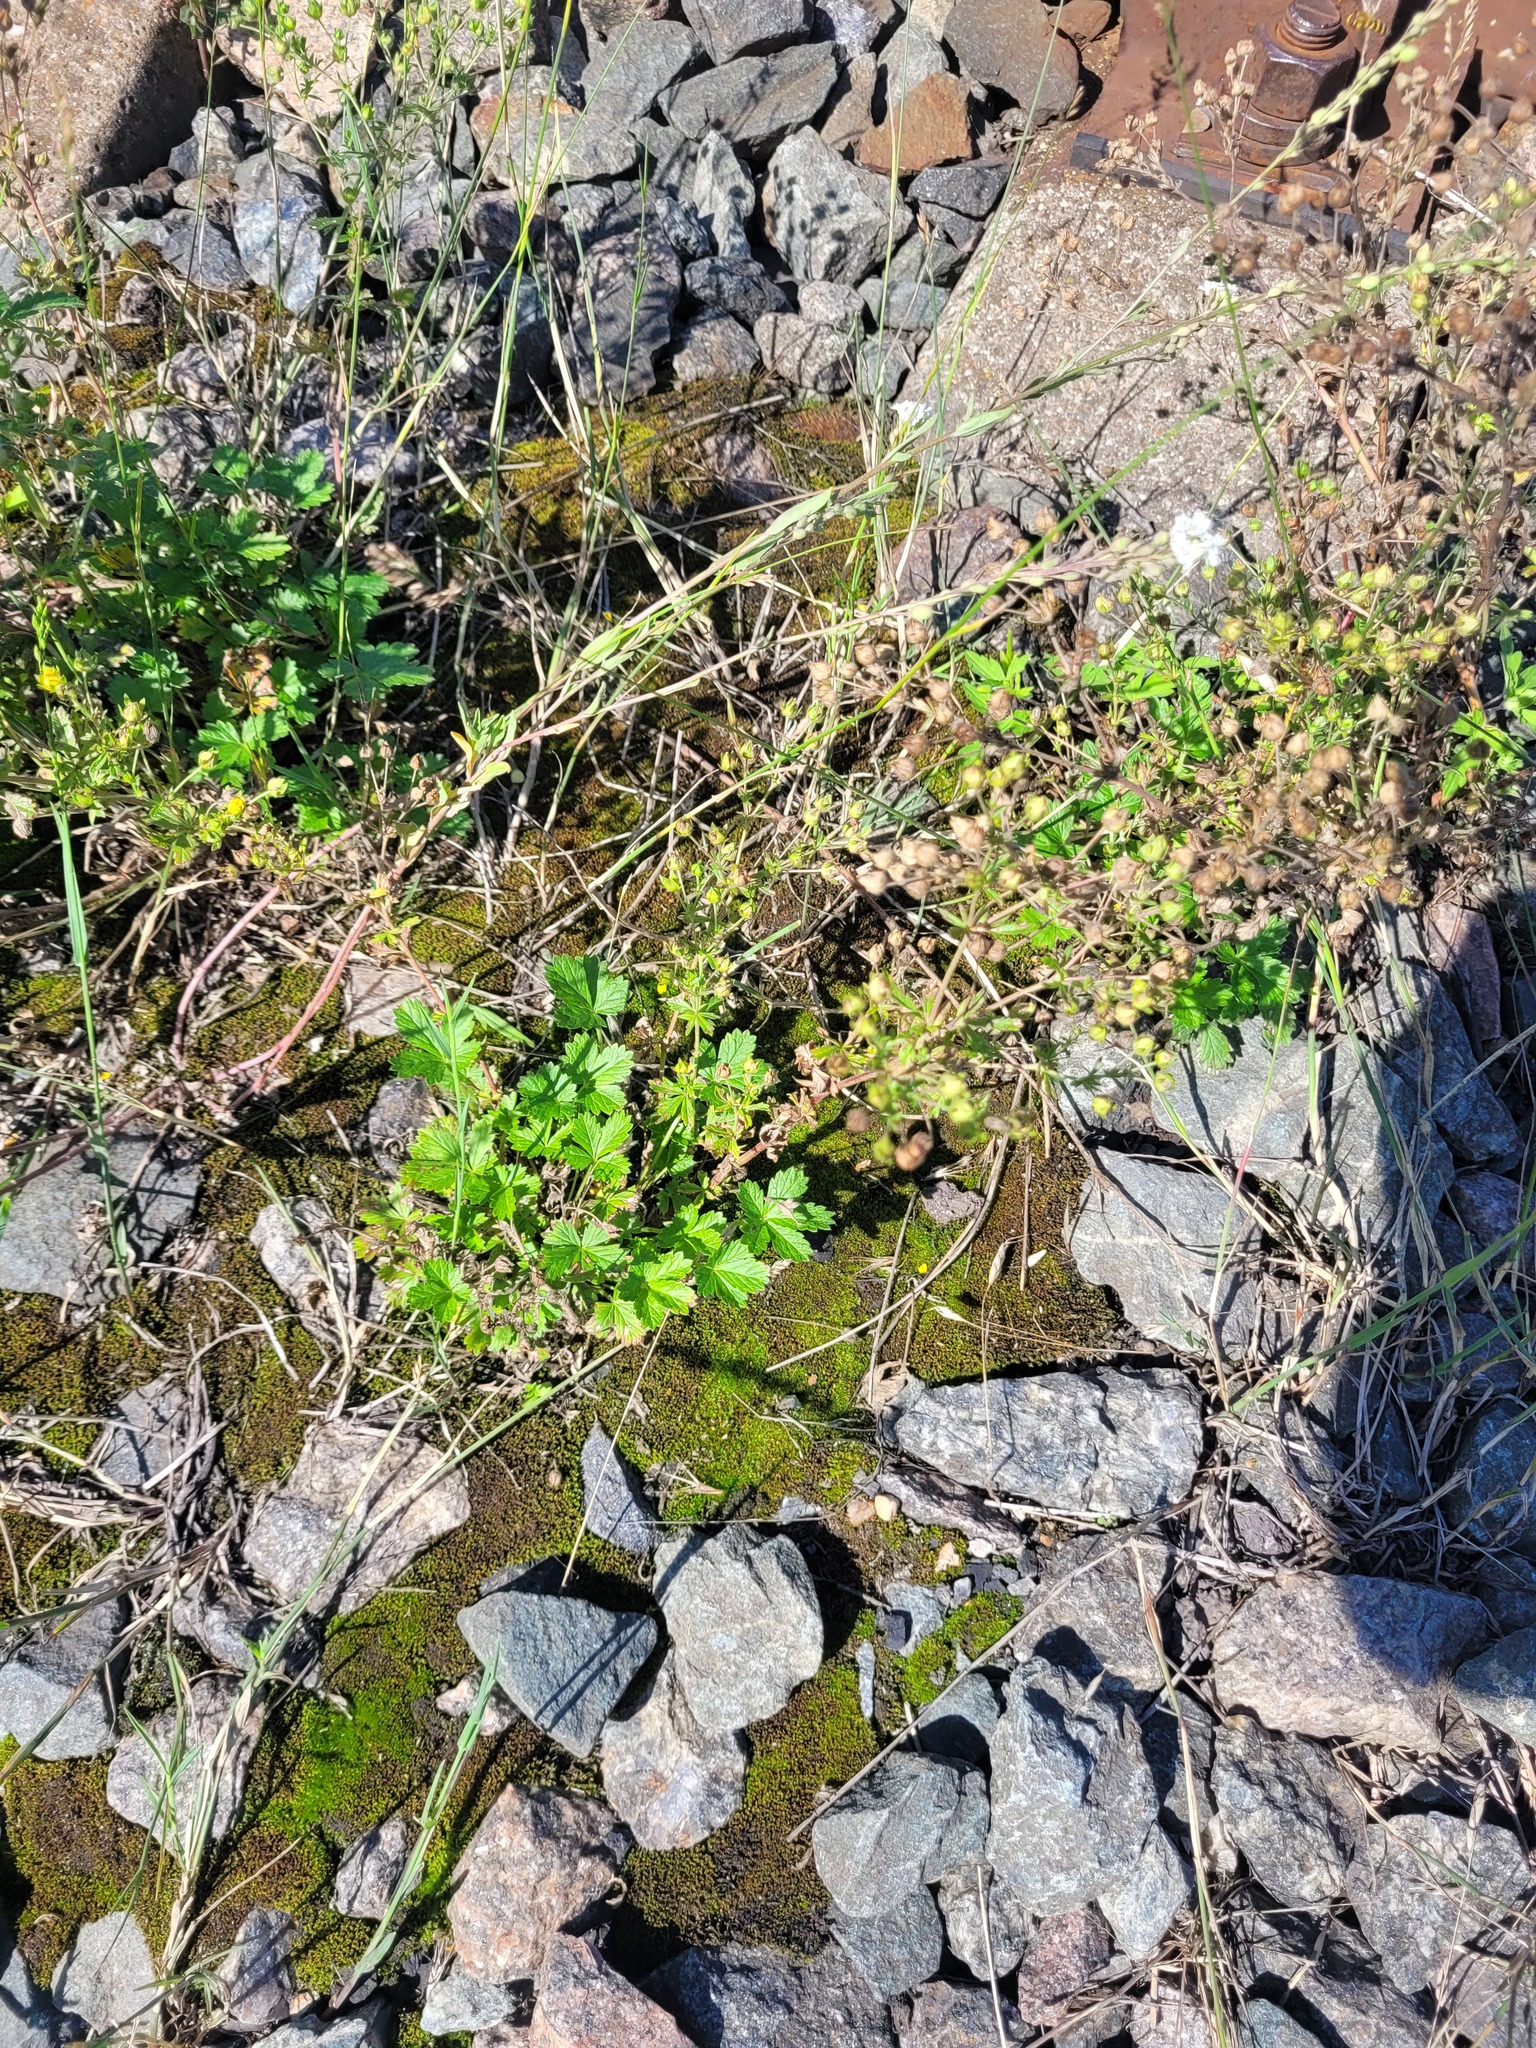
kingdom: Plantae
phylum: Tracheophyta
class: Magnoliopsida
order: Rosales
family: Rosaceae
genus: Potentilla
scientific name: Potentilla intermedia
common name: Downy cinquefoil
